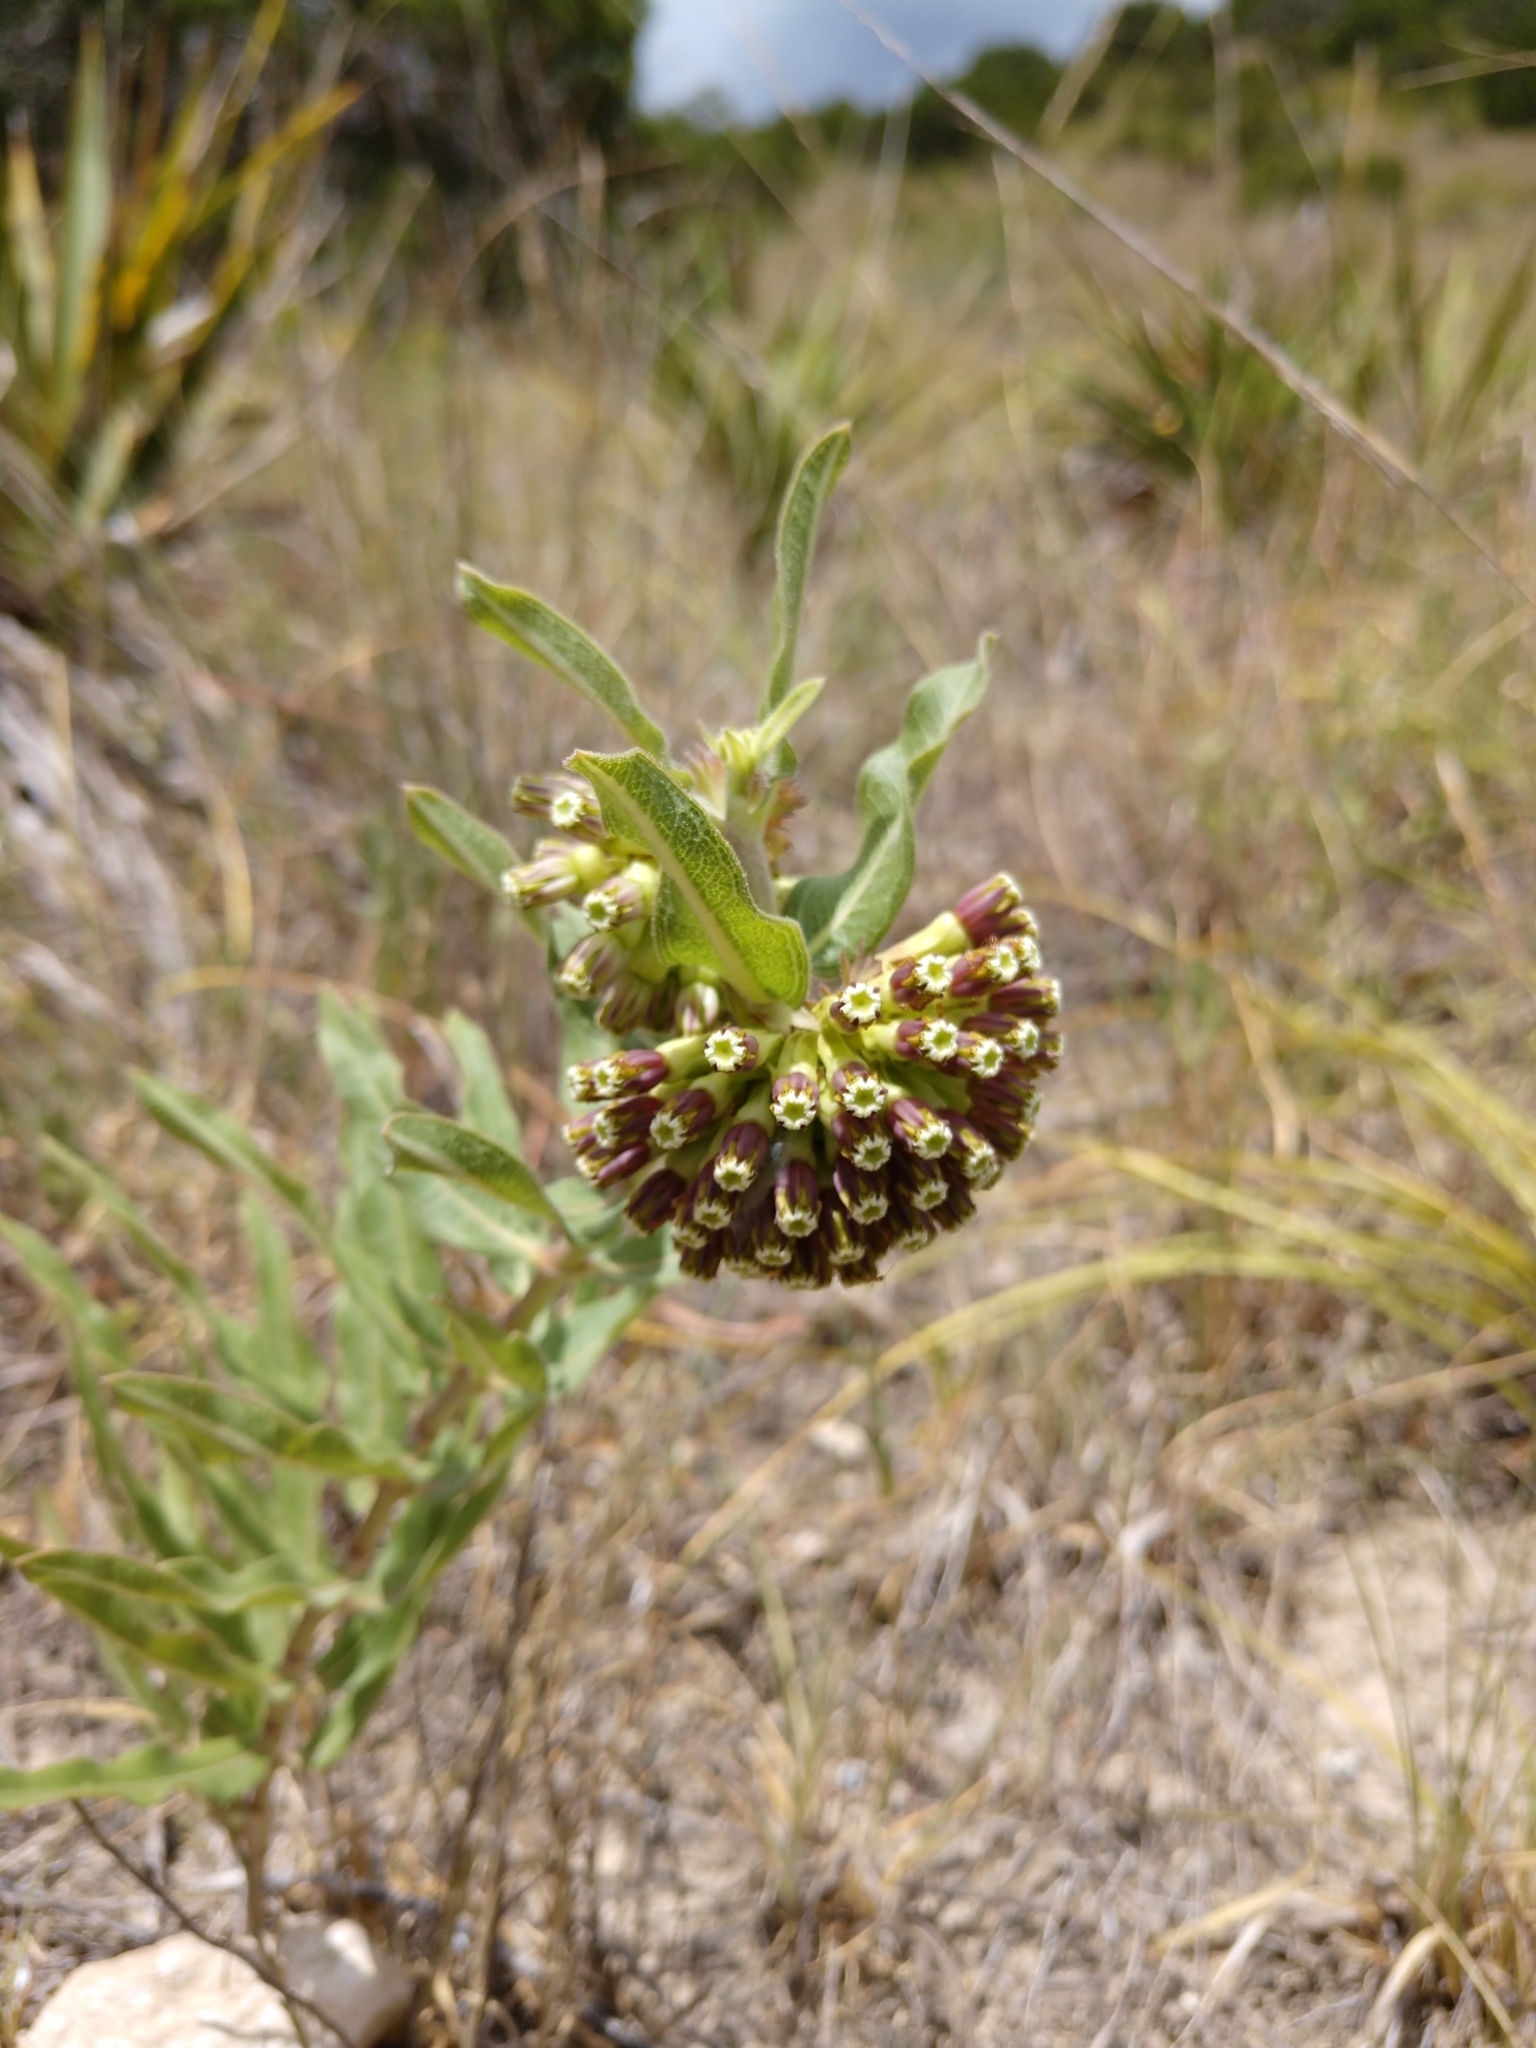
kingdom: Plantae
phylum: Tracheophyta
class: Magnoliopsida
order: Gentianales
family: Apocynaceae
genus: Asclepias
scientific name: Asclepias viridiflora
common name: Green comet milkweed
